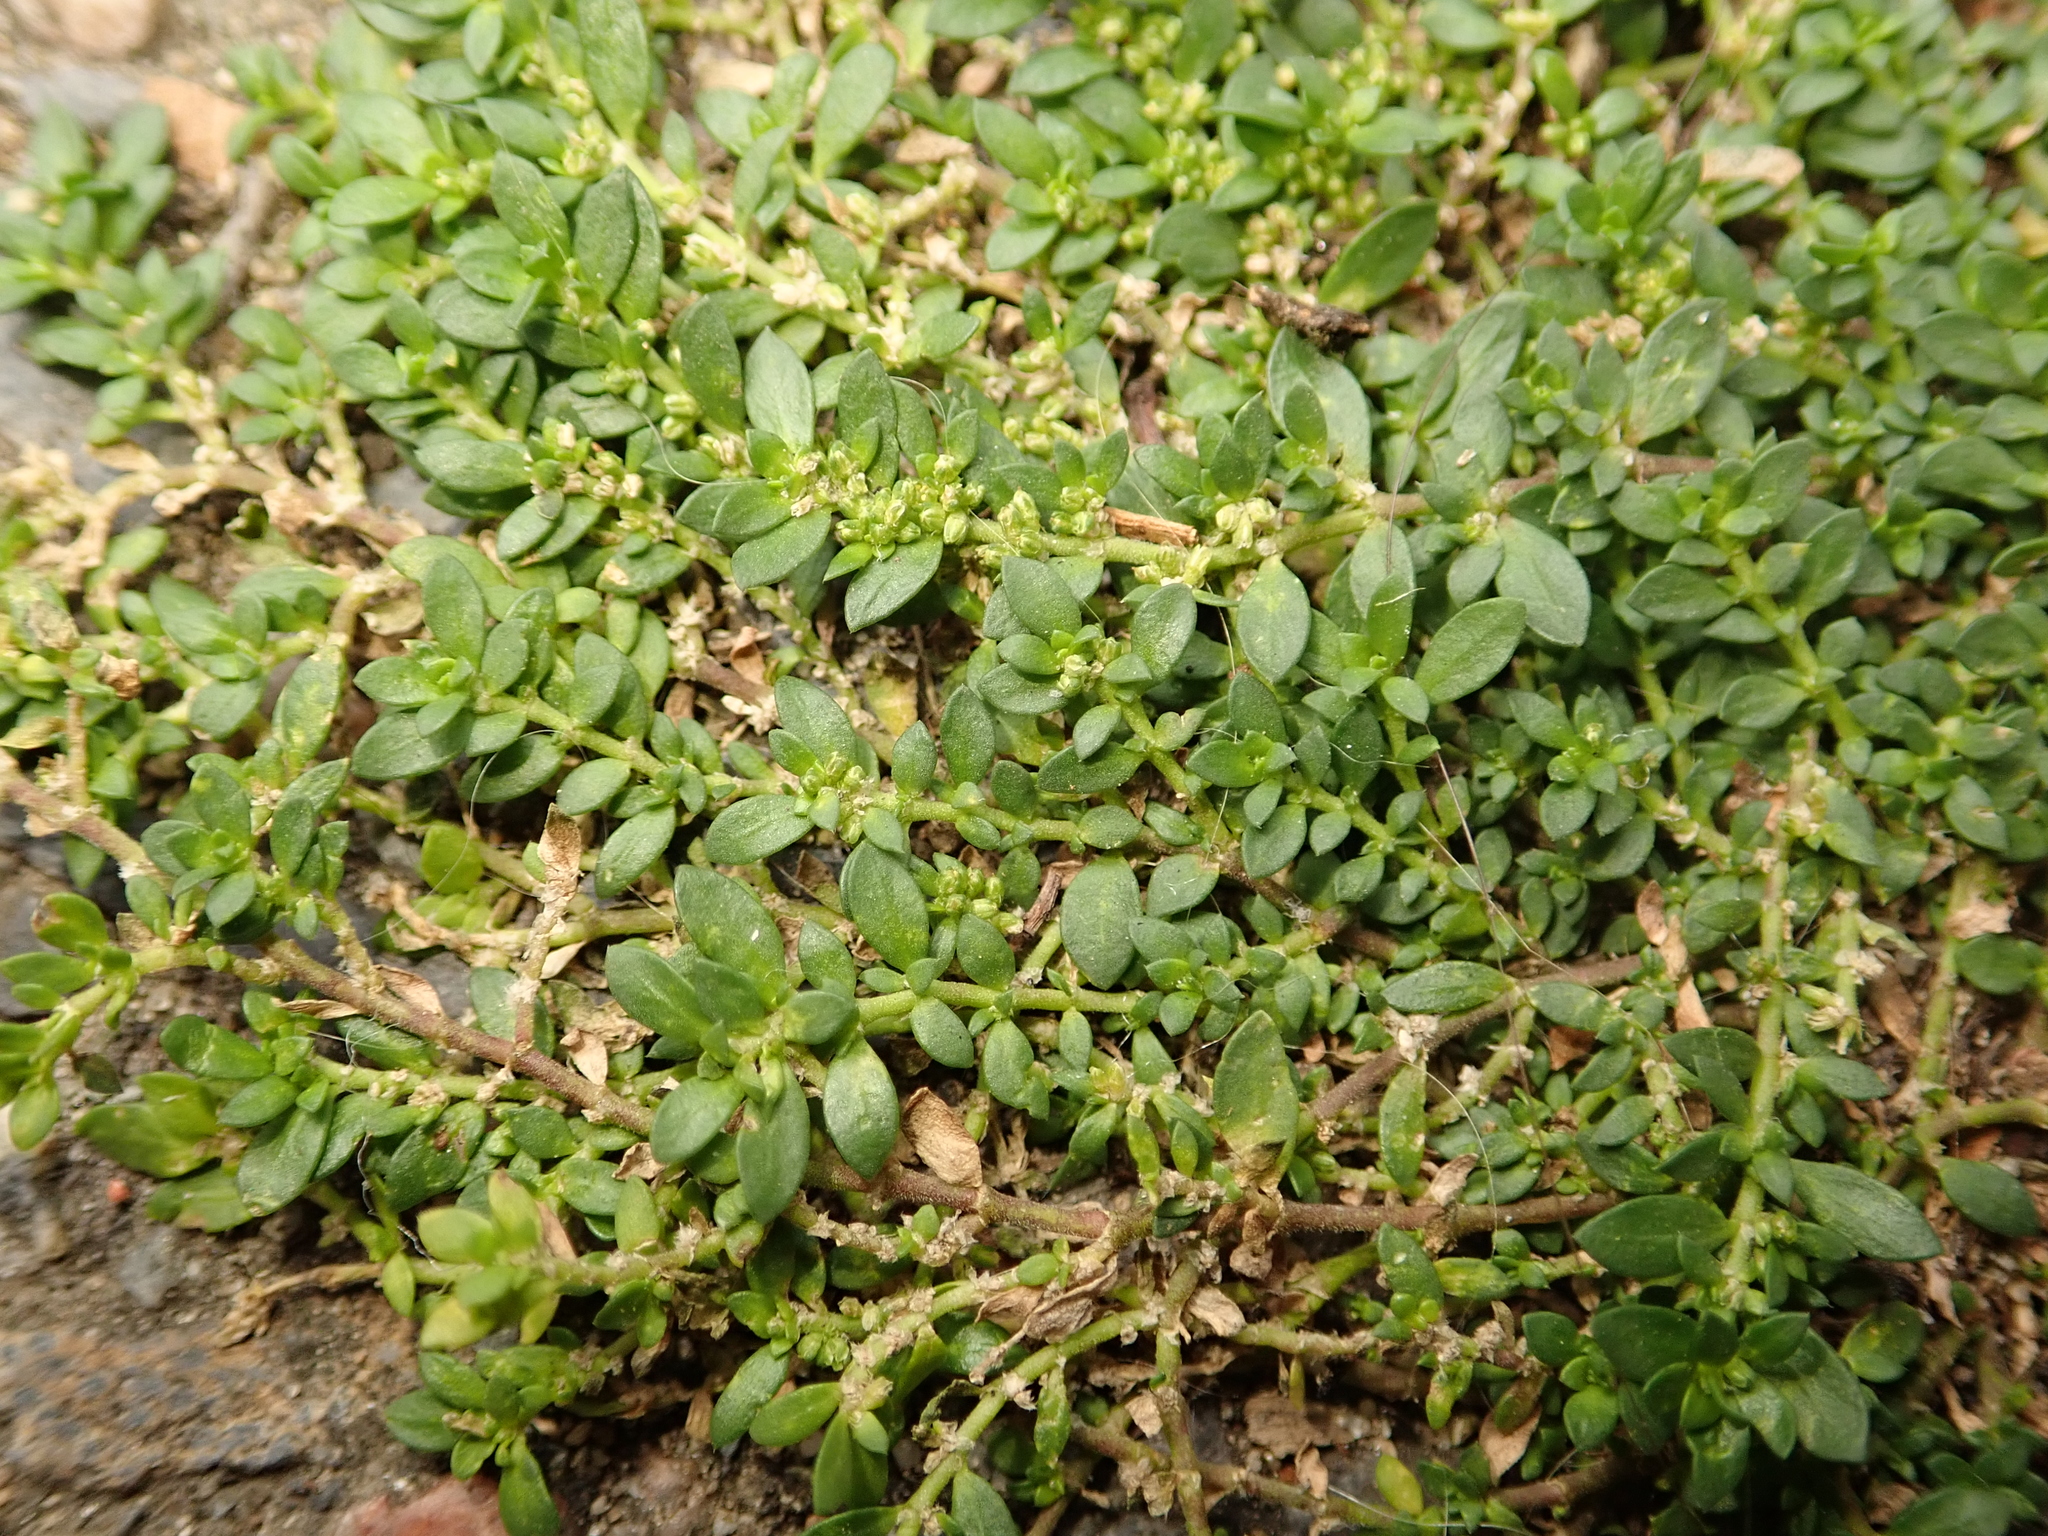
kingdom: Plantae
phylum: Tracheophyta
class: Magnoliopsida
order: Caryophyllales
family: Caryophyllaceae
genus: Herniaria
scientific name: Herniaria glabra
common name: Smooth rupturewort
